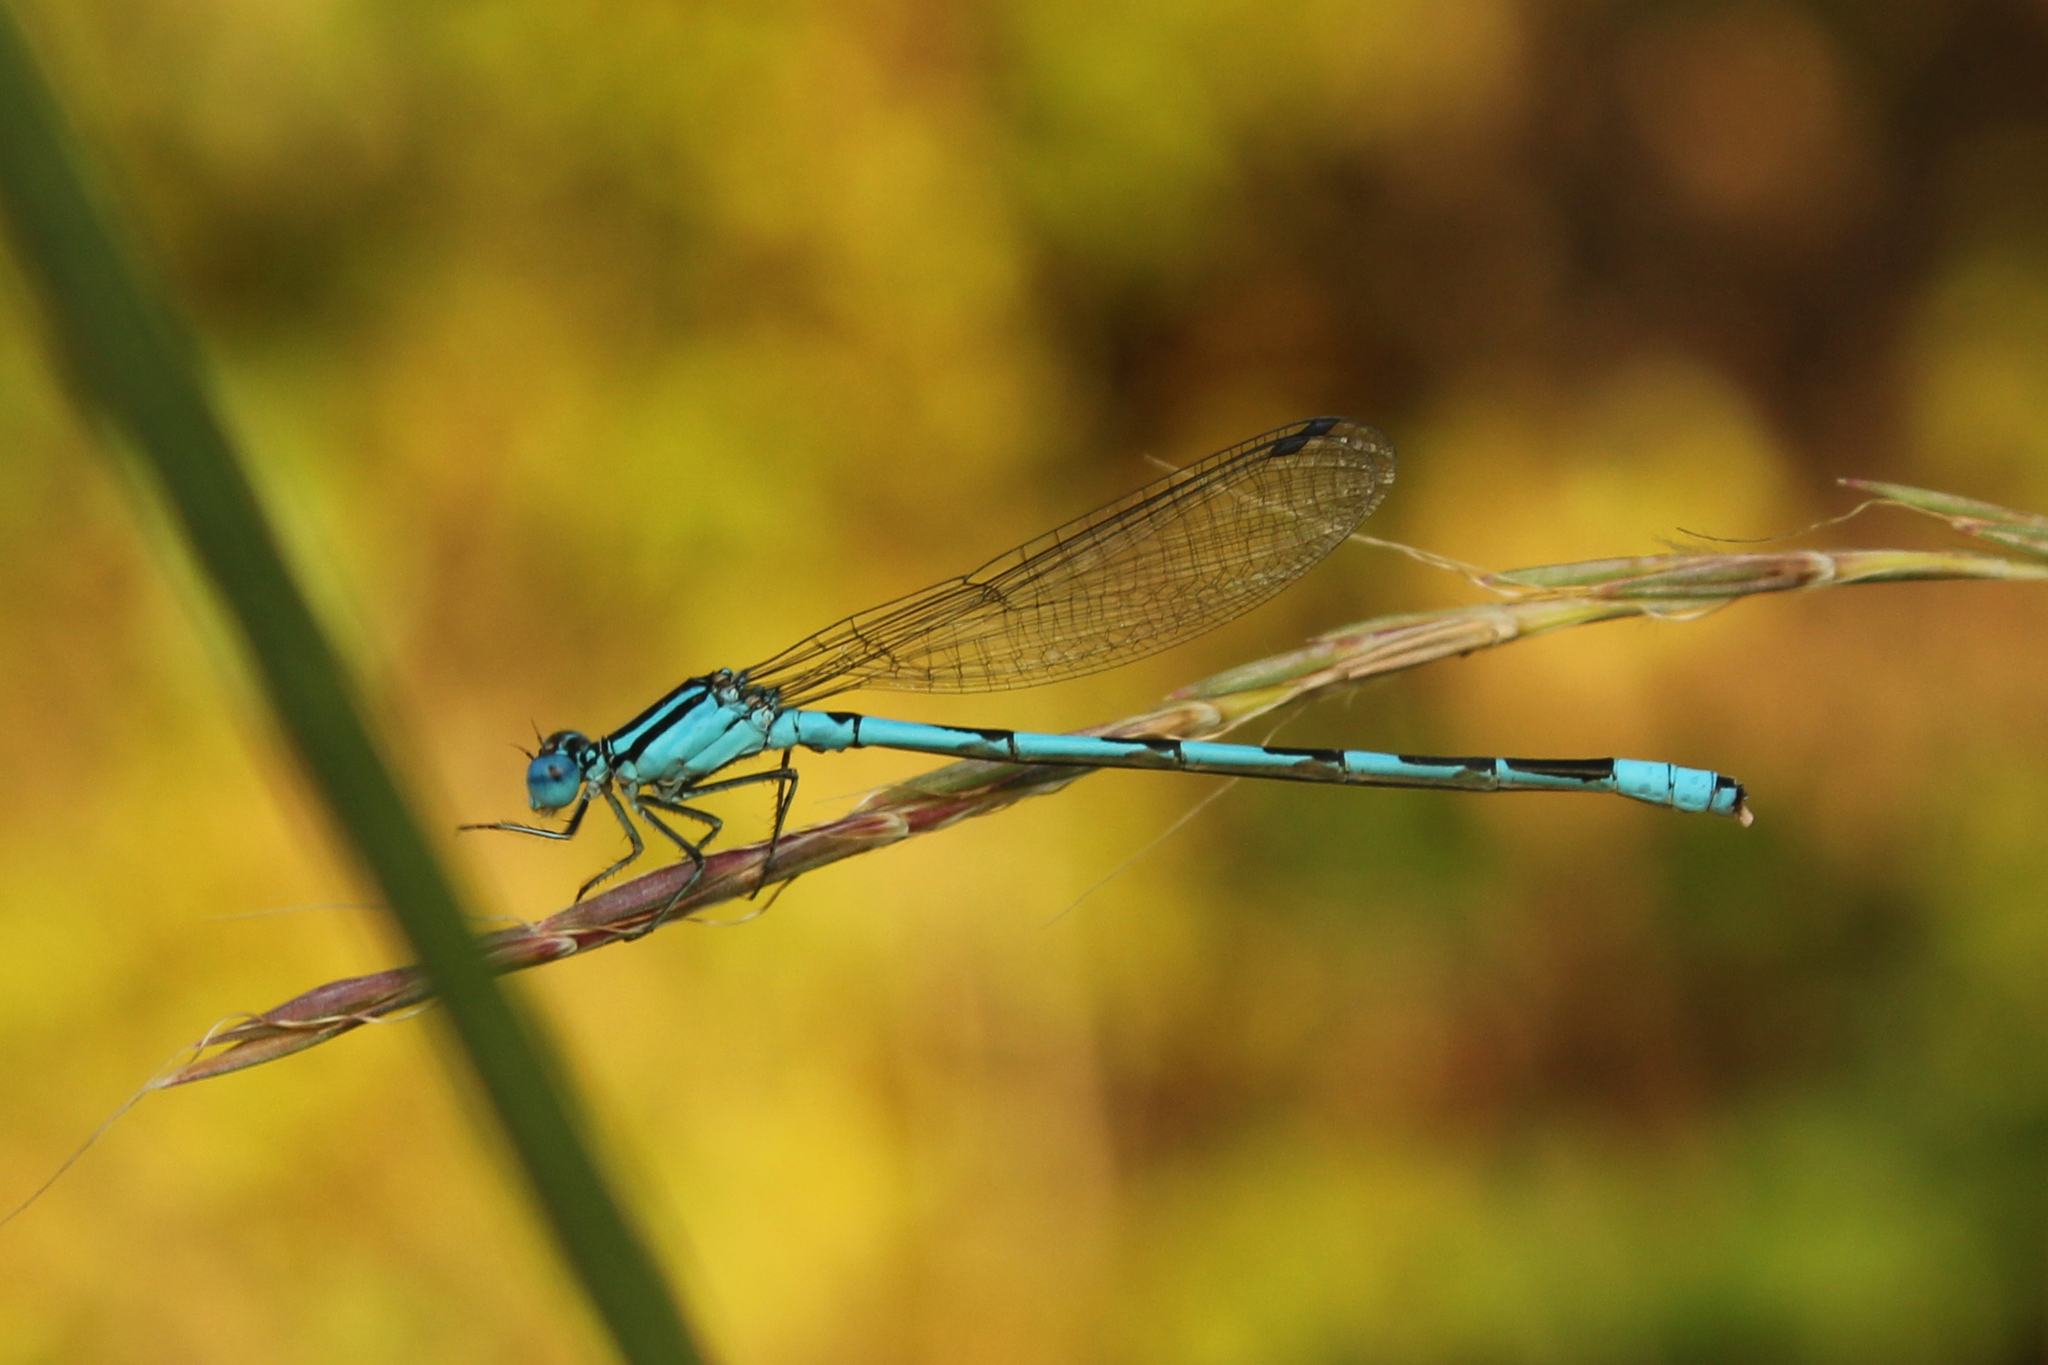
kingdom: Animalia
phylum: Arthropoda
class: Insecta
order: Odonata
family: Coenagrionidae
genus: Enallagma
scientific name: Enallagma durum
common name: Big bluet
